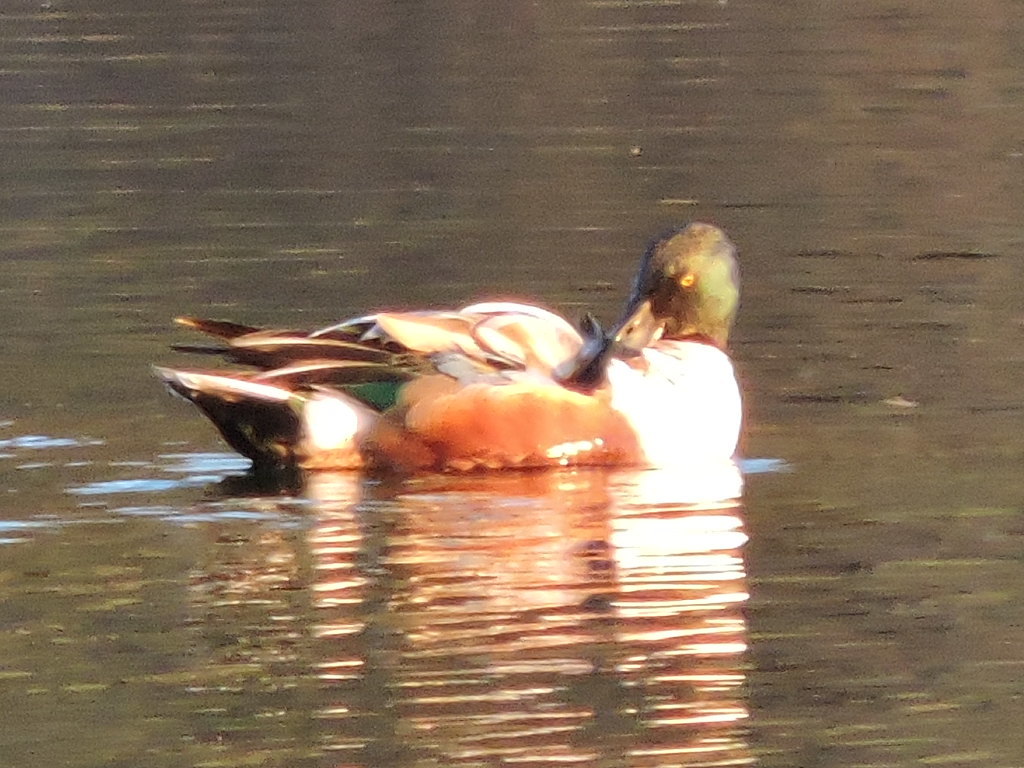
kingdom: Animalia
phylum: Chordata
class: Aves
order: Anseriformes
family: Anatidae
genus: Spatula
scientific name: Spatula clypeata
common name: Northern shoveler
